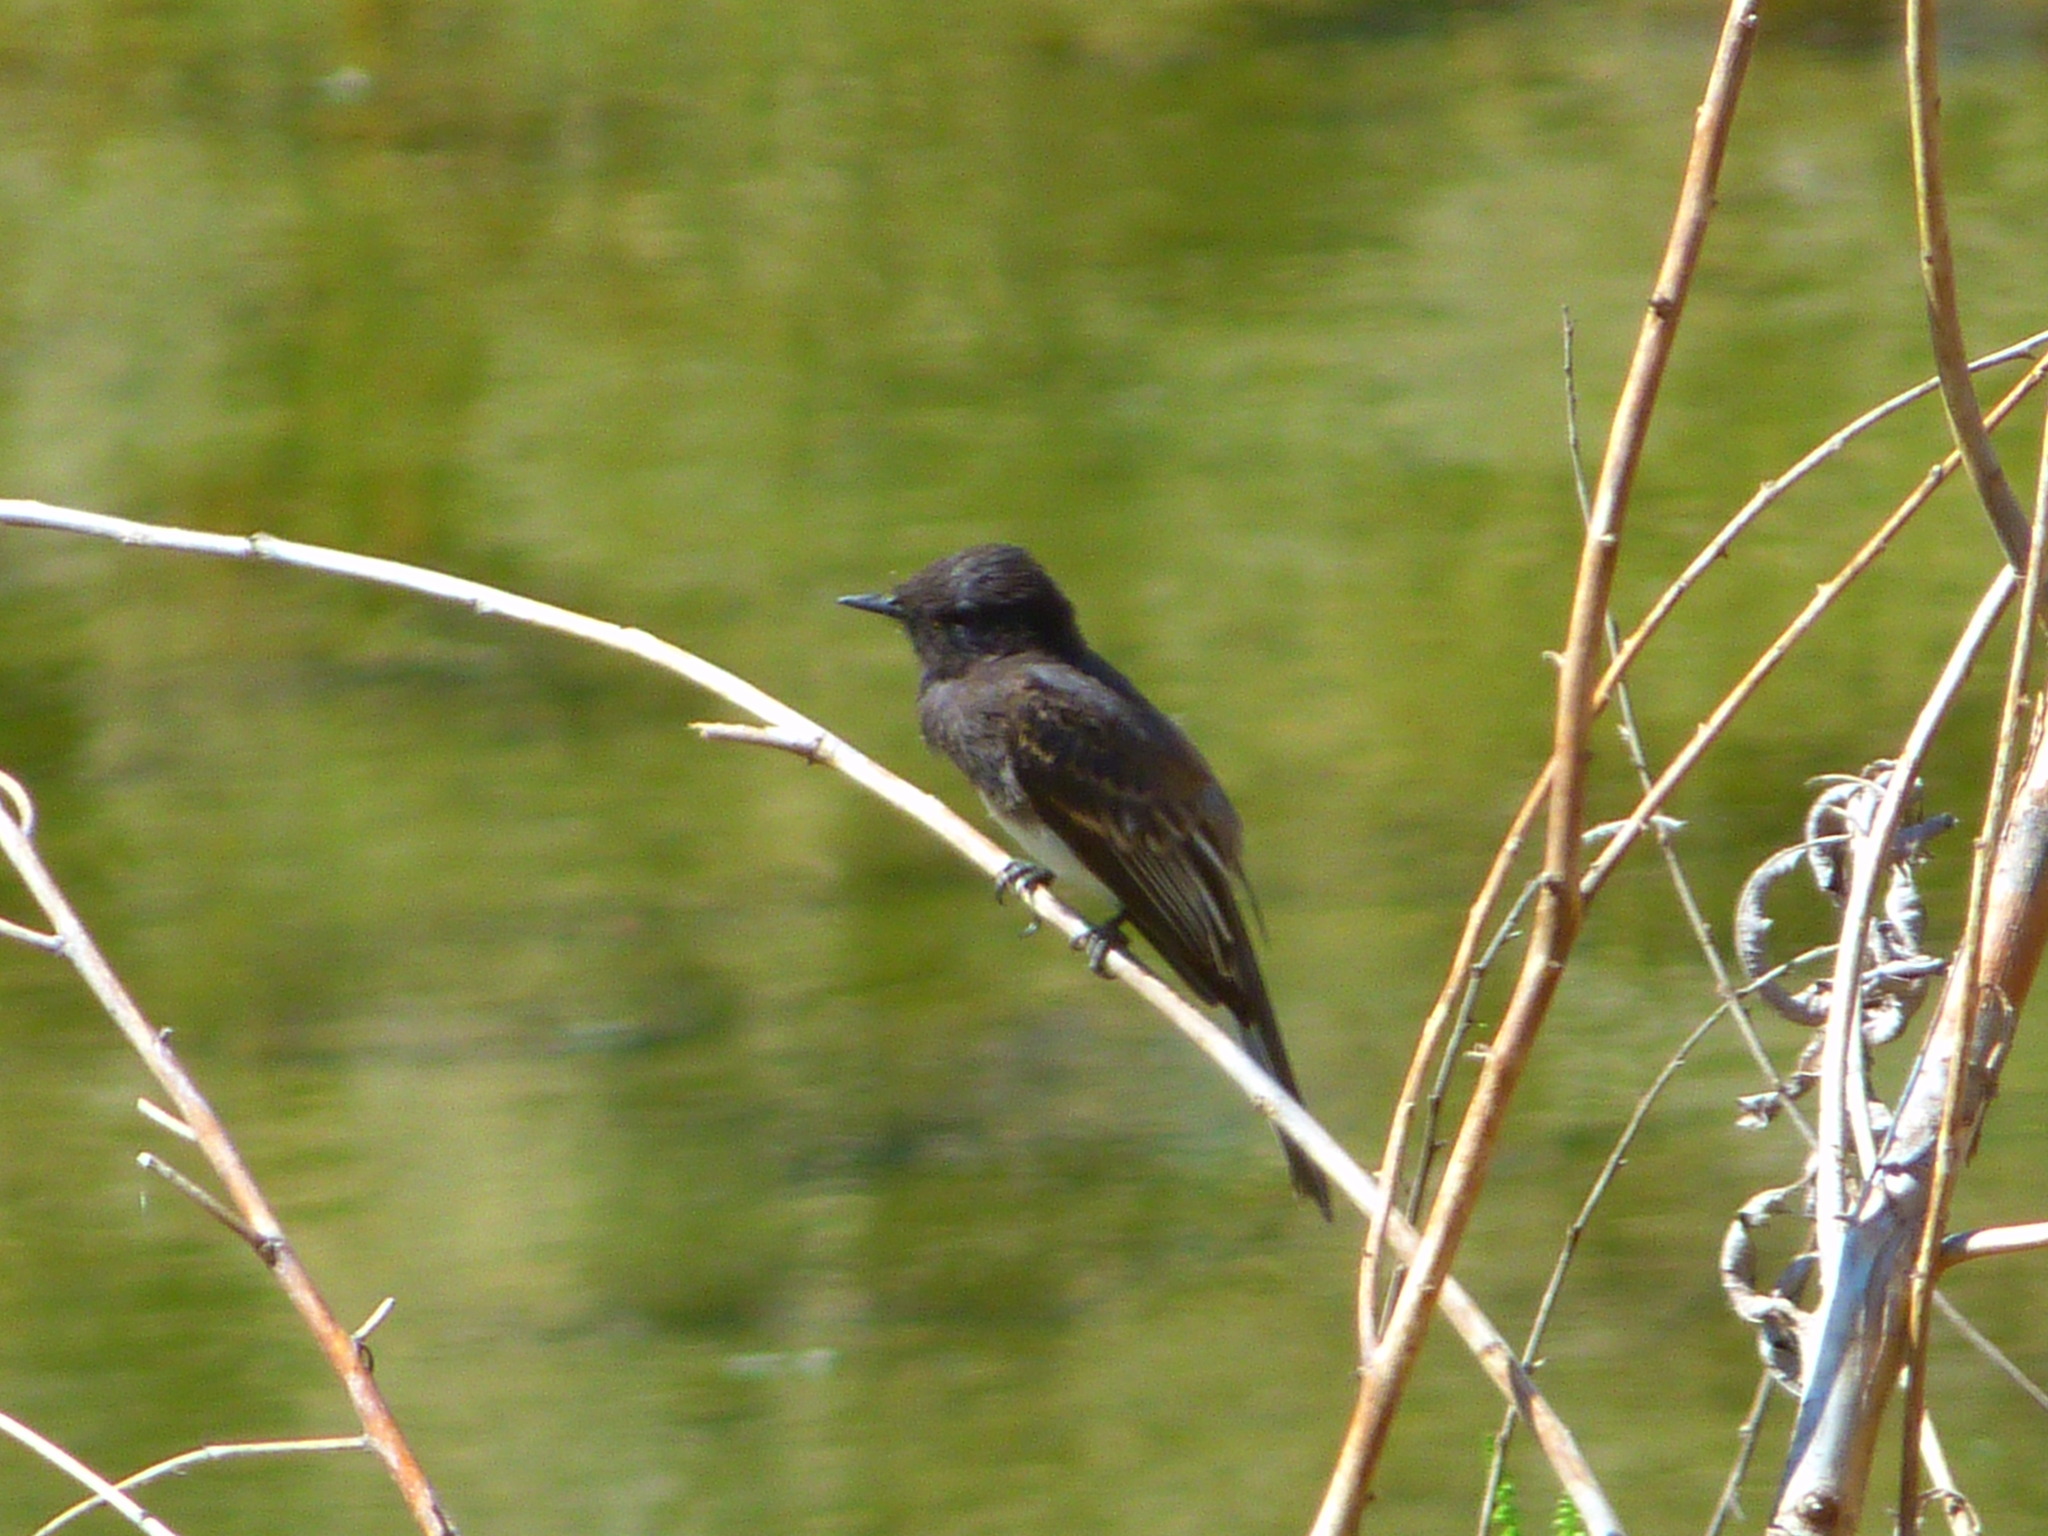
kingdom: Animalia
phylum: Chordata
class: Aves
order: Passeriformes
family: Tyrannidae
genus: Sayornis
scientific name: Sayornis nigricans
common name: Black phoebe
